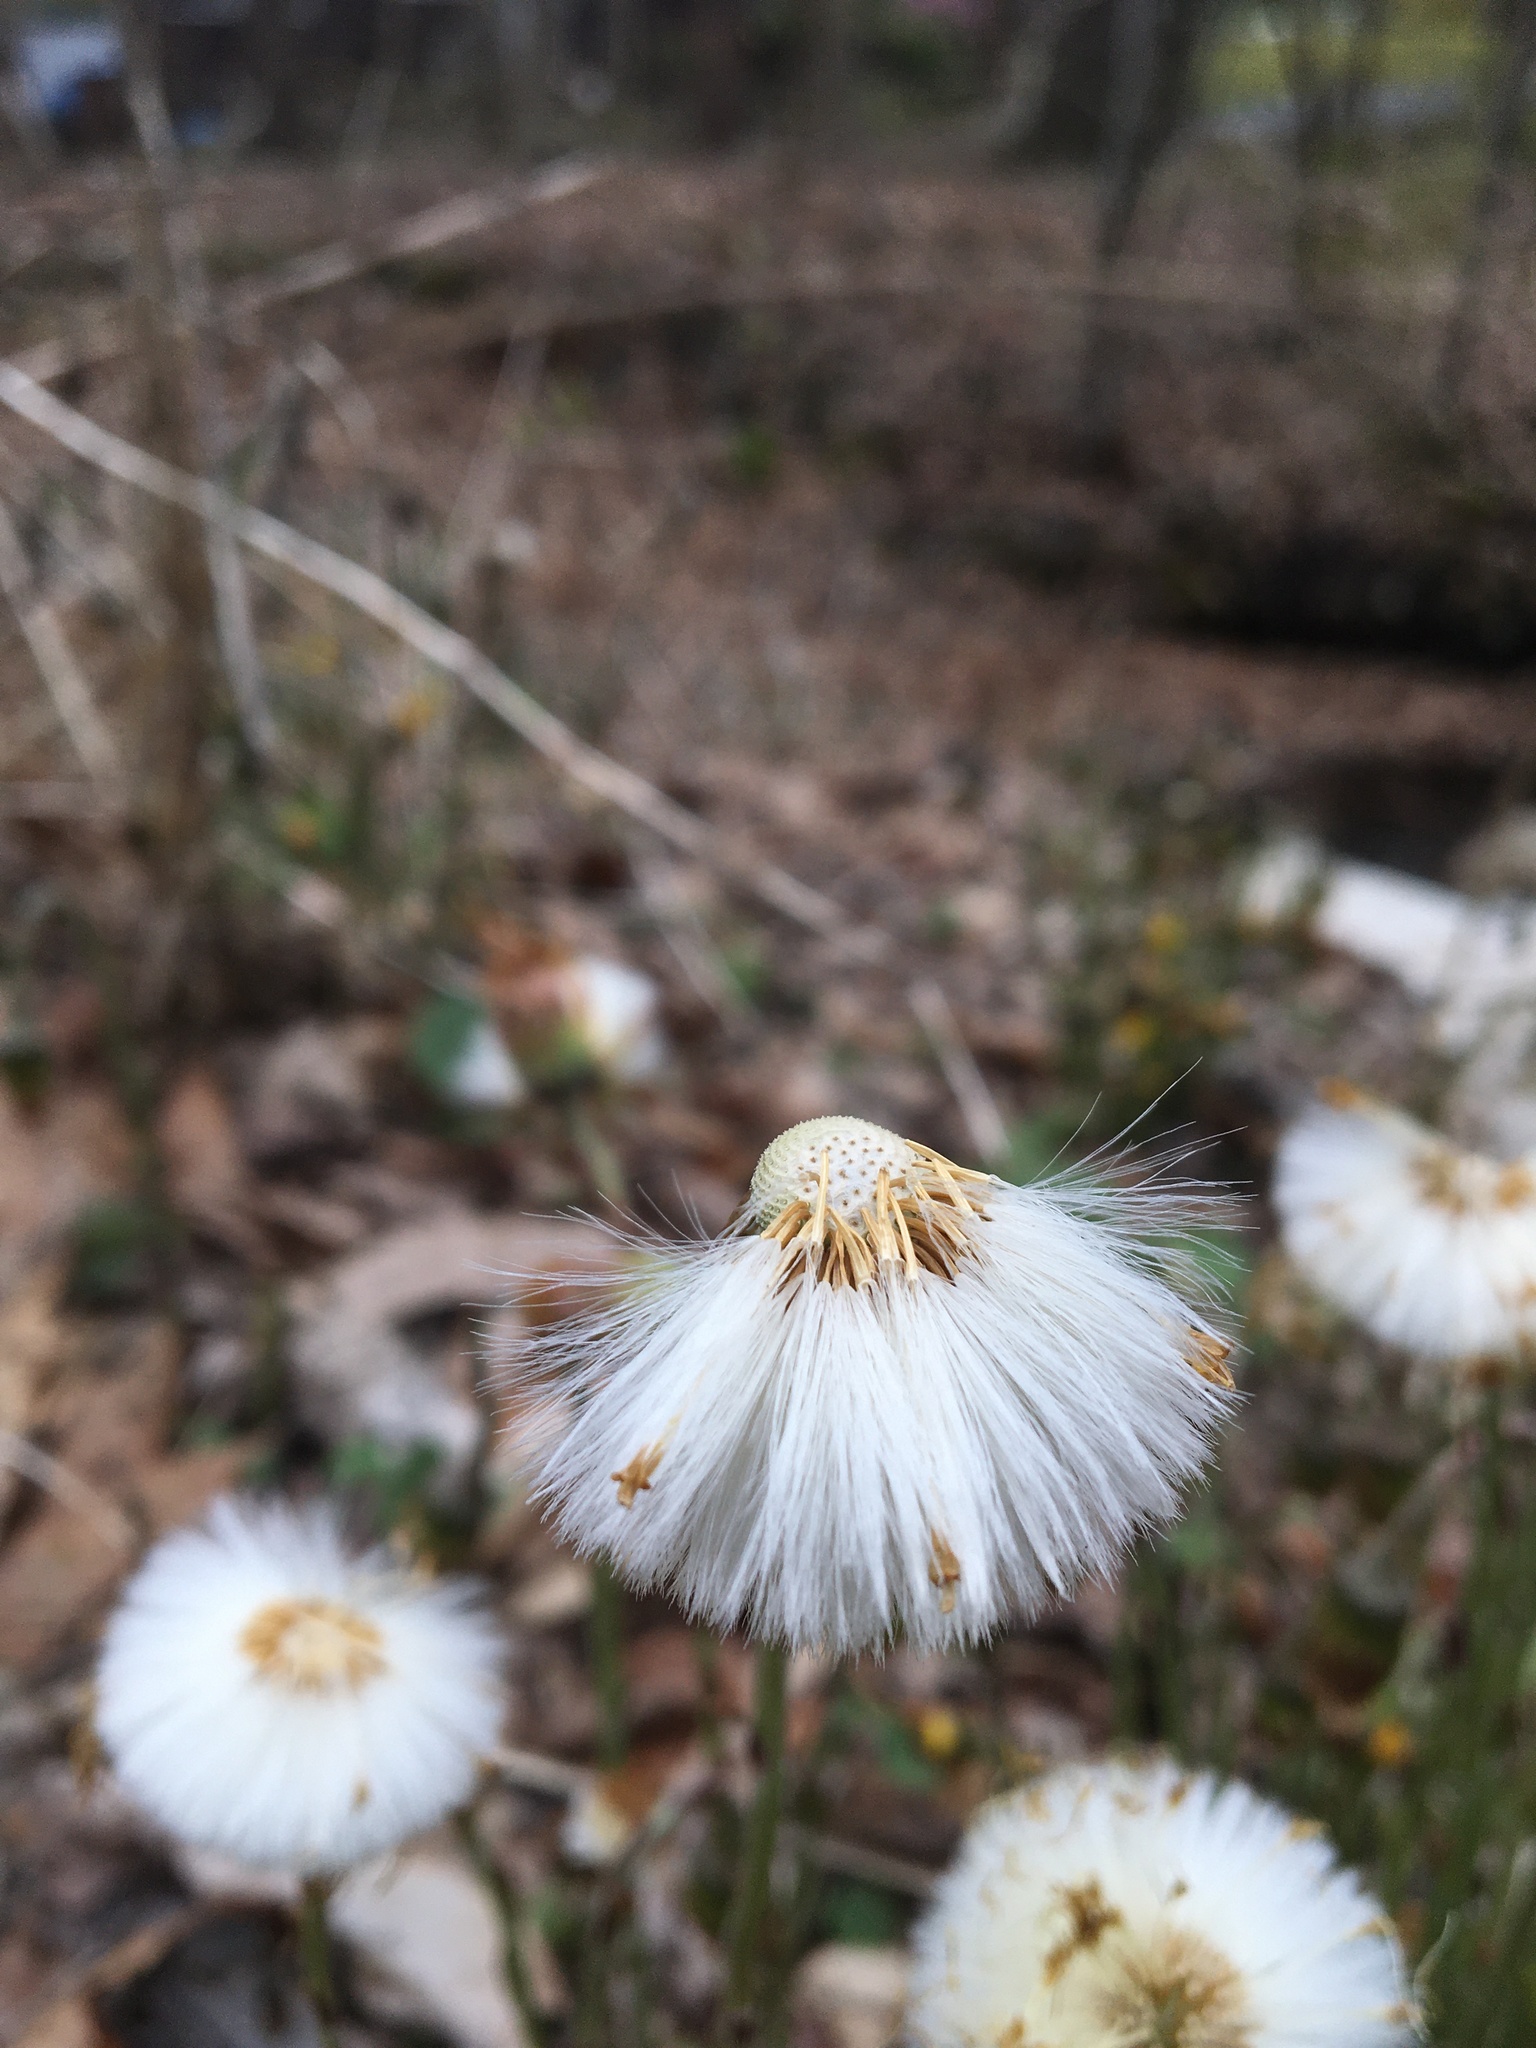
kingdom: Plantae
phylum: Tracheophyta
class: Magnoliopsida
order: Asterales
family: Asteraceae
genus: Tussilago
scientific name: Tussilago farfara
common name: Coltsfoot
